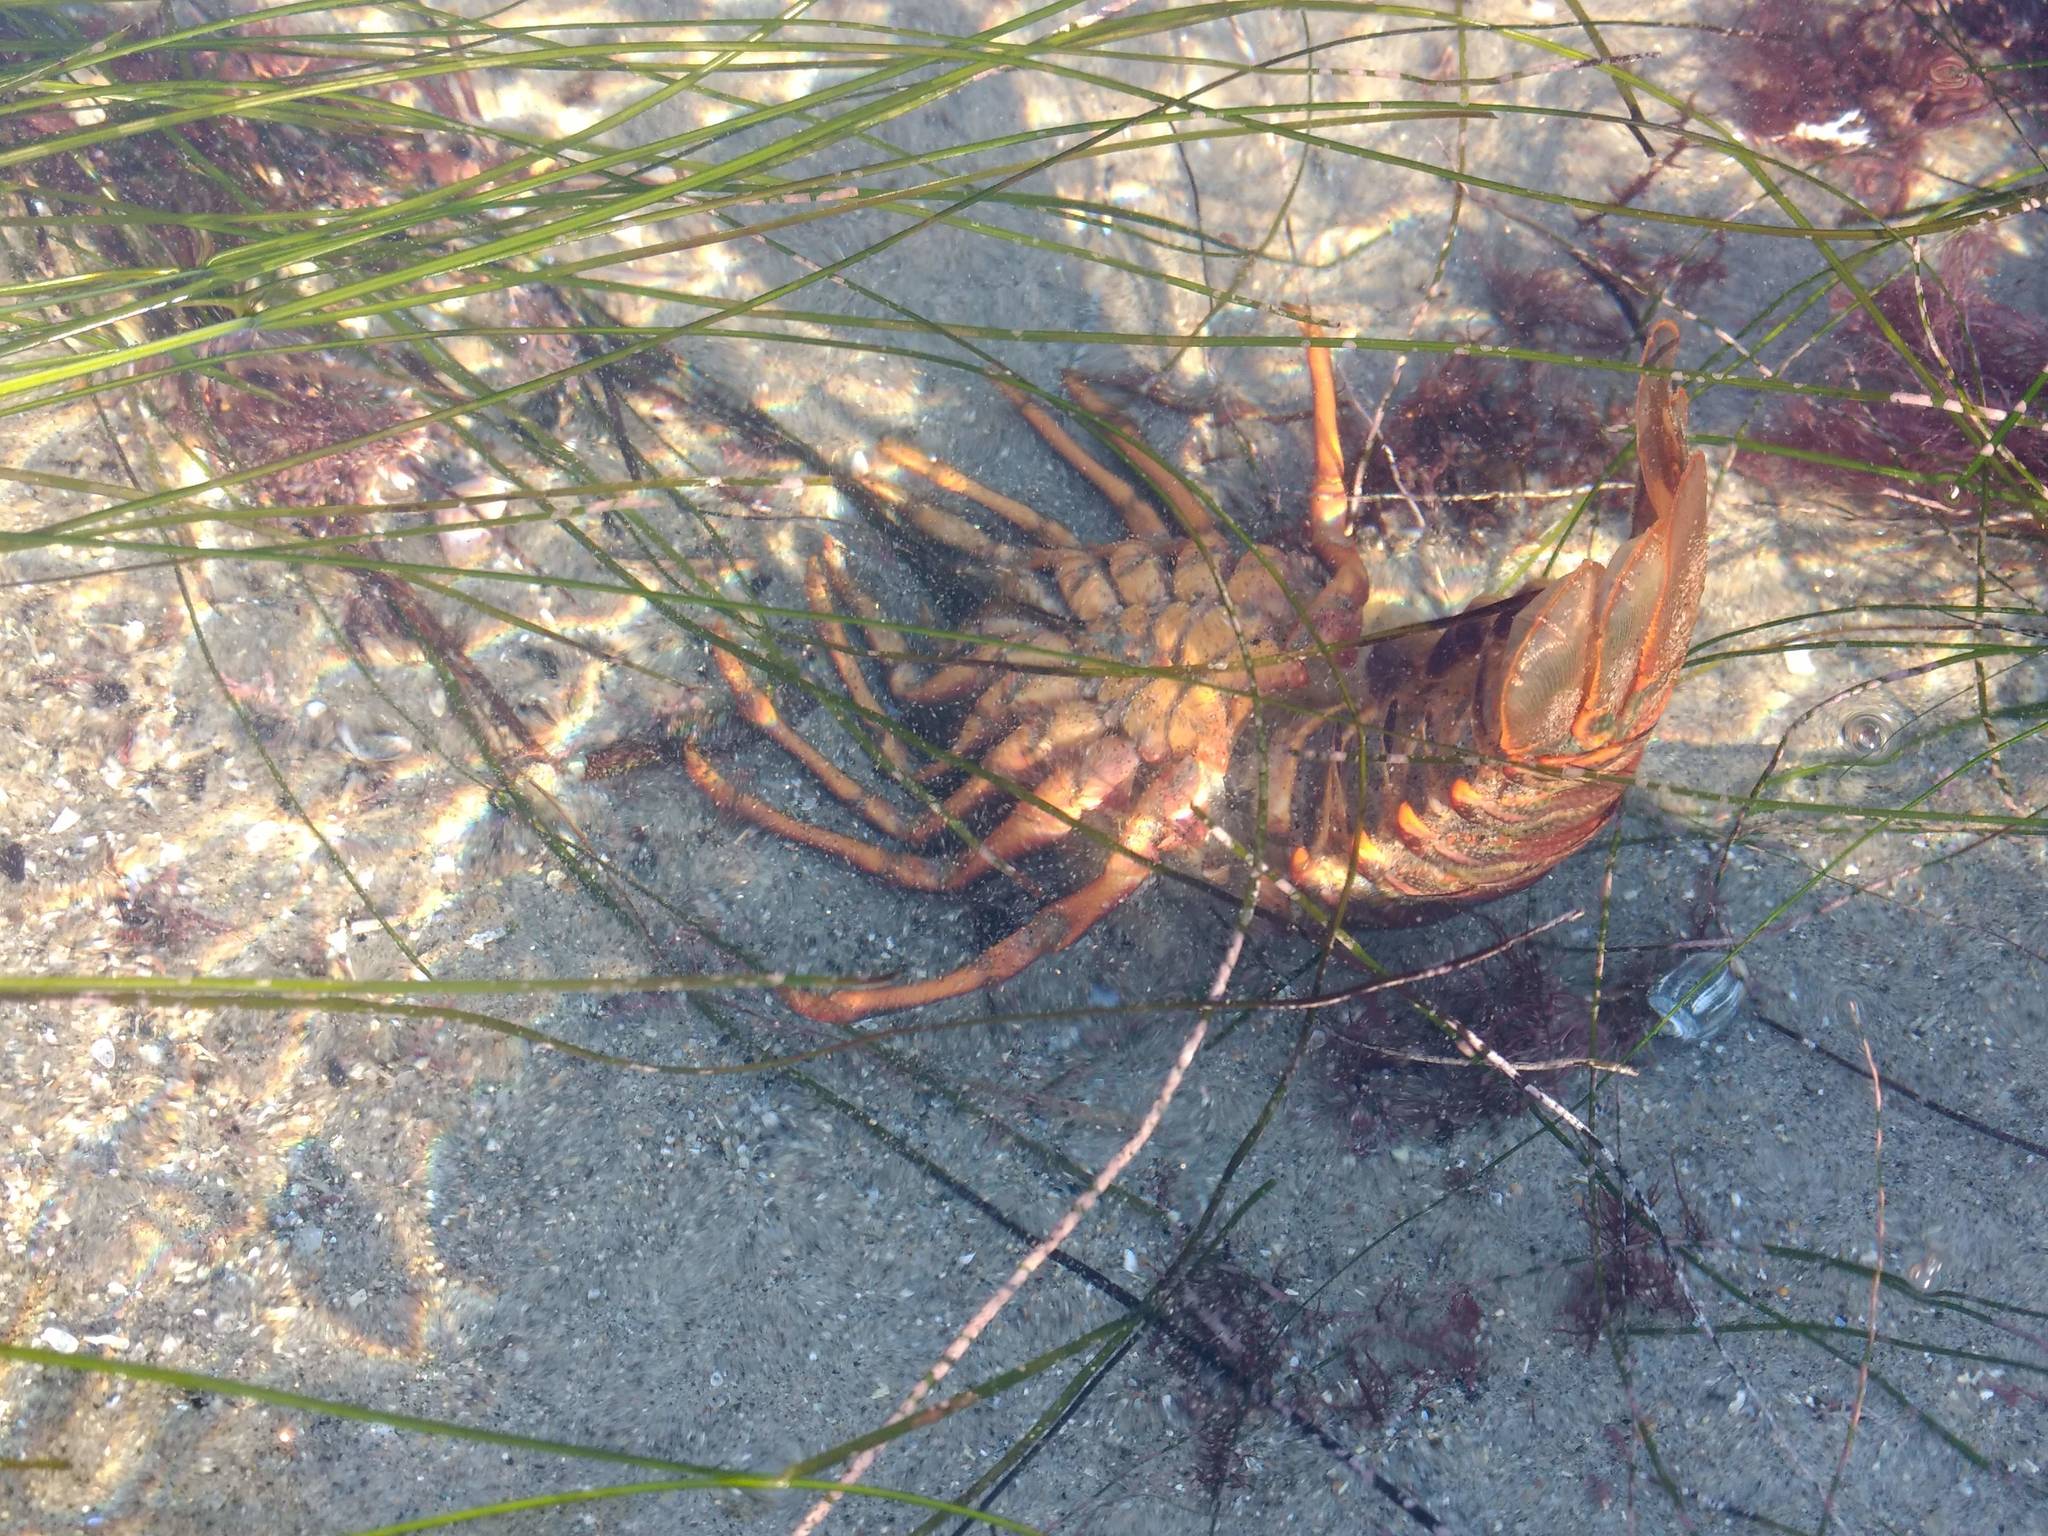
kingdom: Animalia
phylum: Arthropoda
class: Malacostraca
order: Decapoda
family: Palinuridae
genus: Panulirus
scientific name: Panulirus interruptus
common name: California spiny lobster
